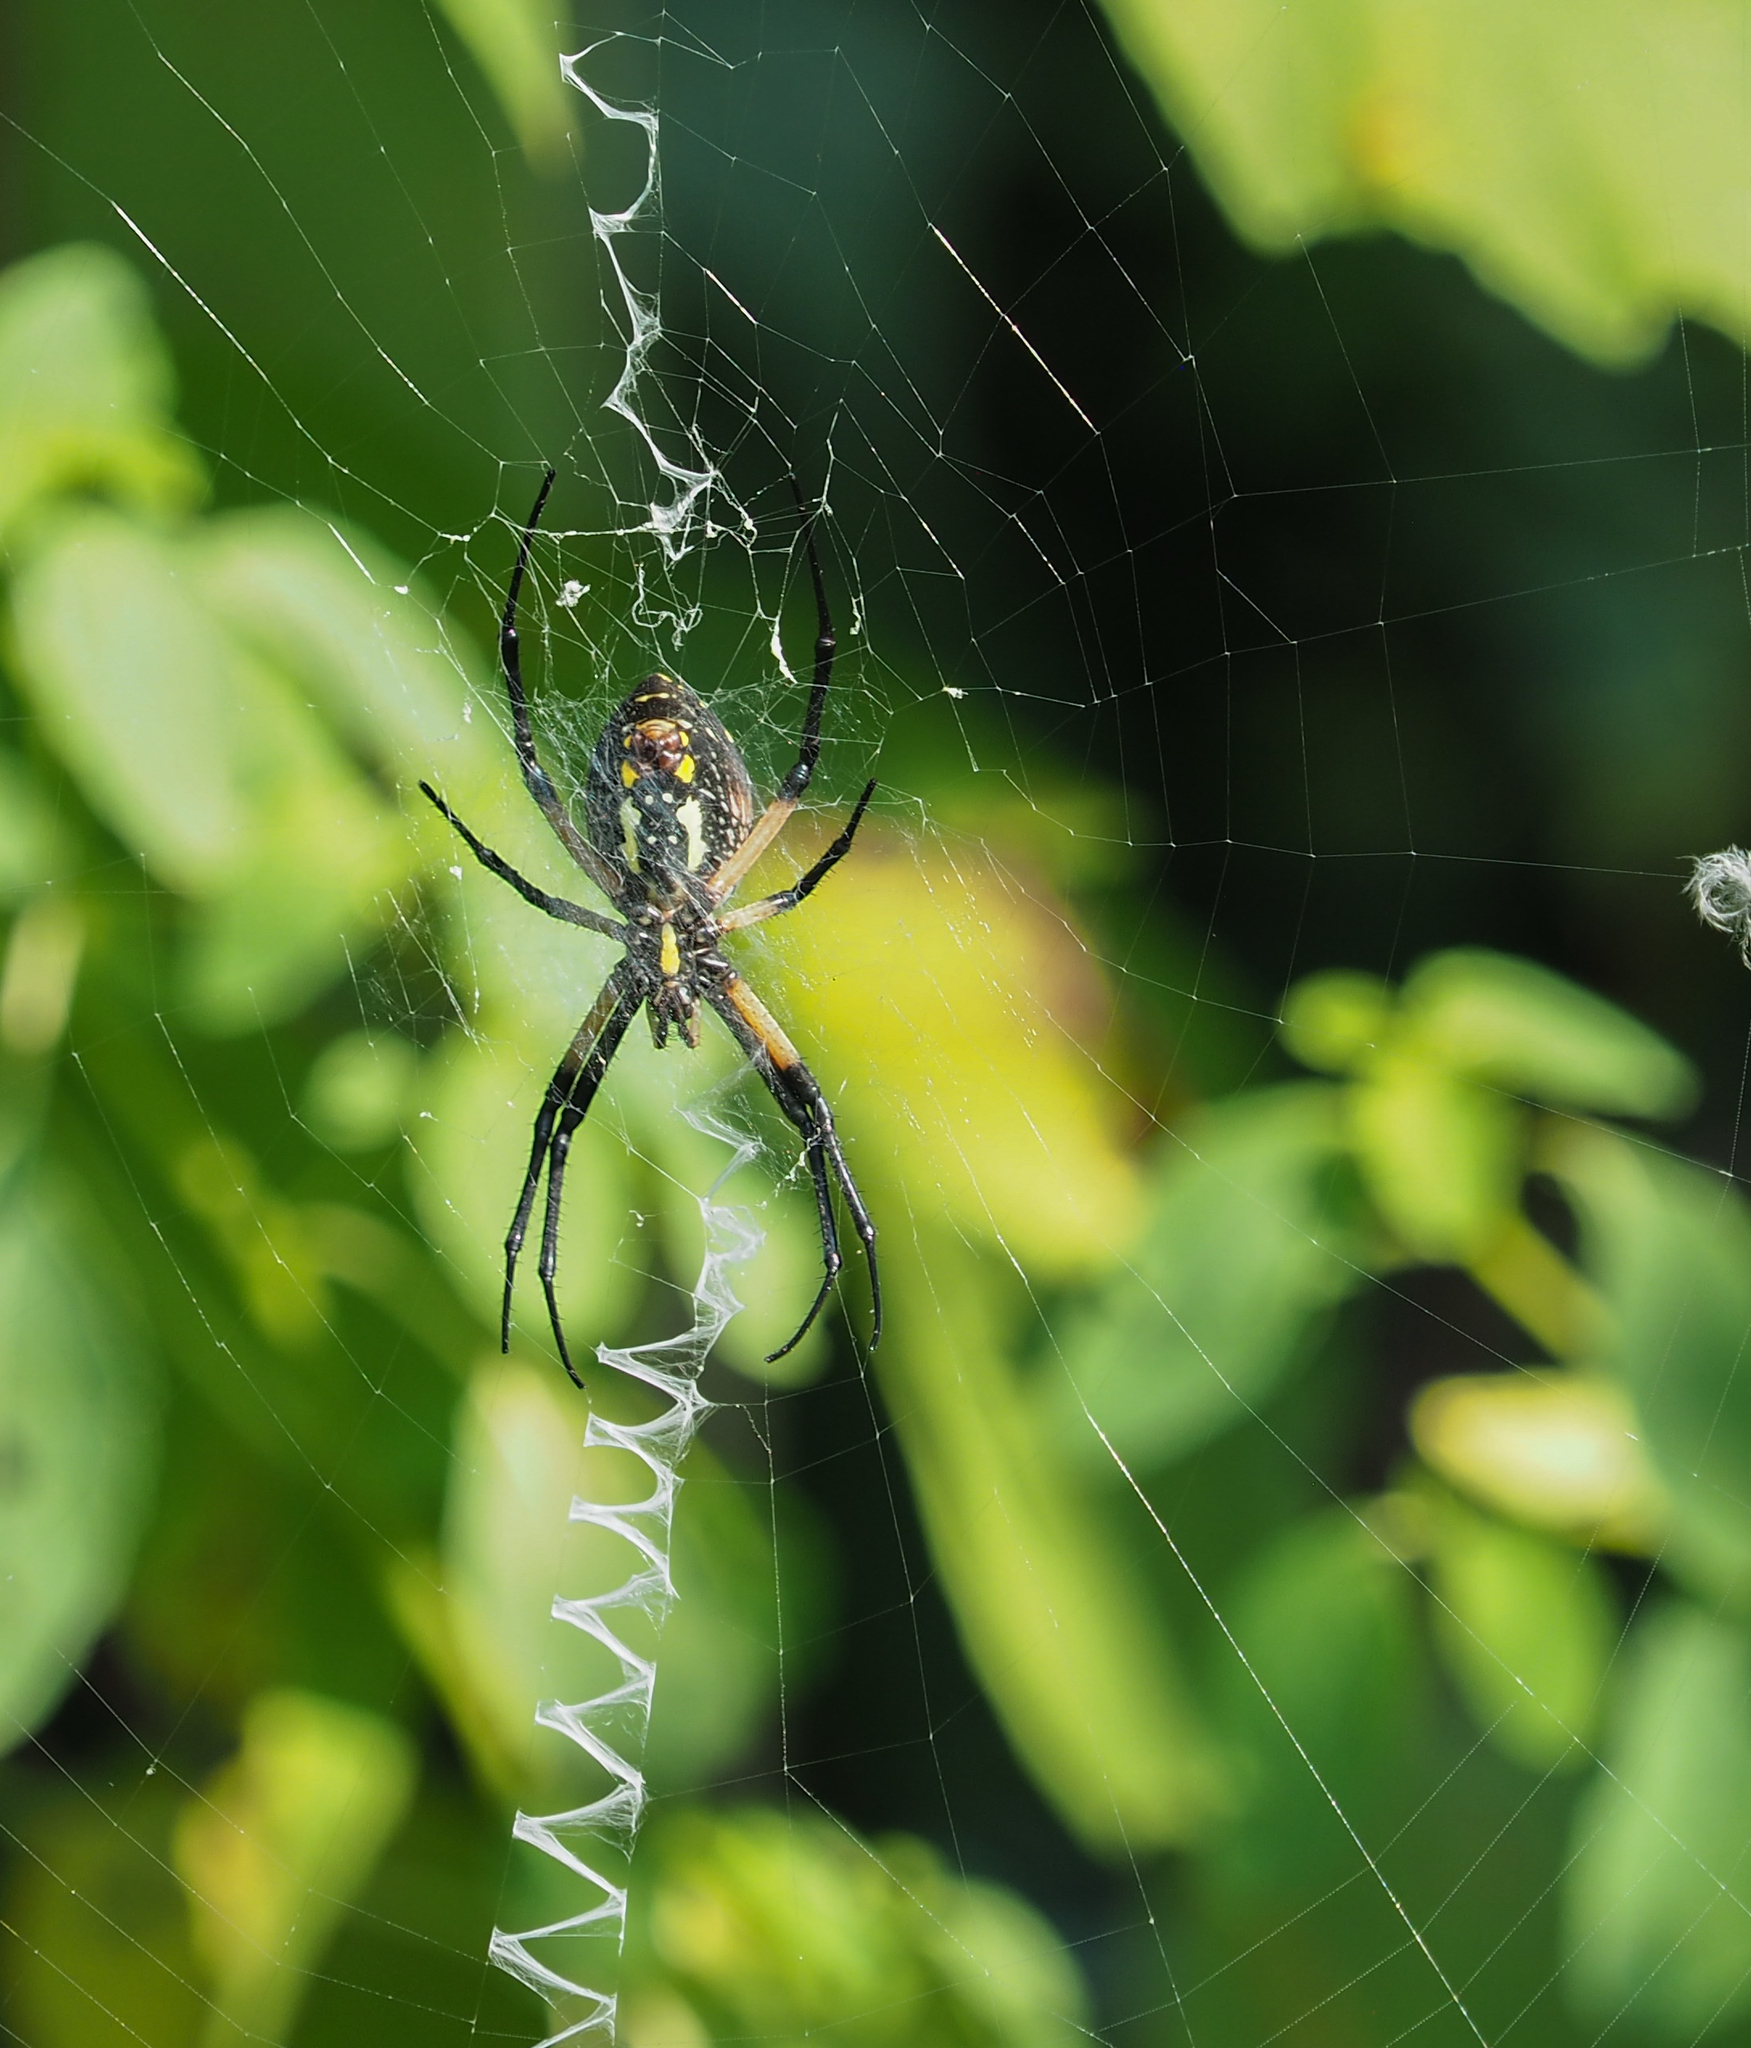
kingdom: Animalia
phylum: Arthropoda
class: Arachnida
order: Araneae
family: Araneidae
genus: Argiope
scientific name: Argiope aurantia
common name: Orb weavers
